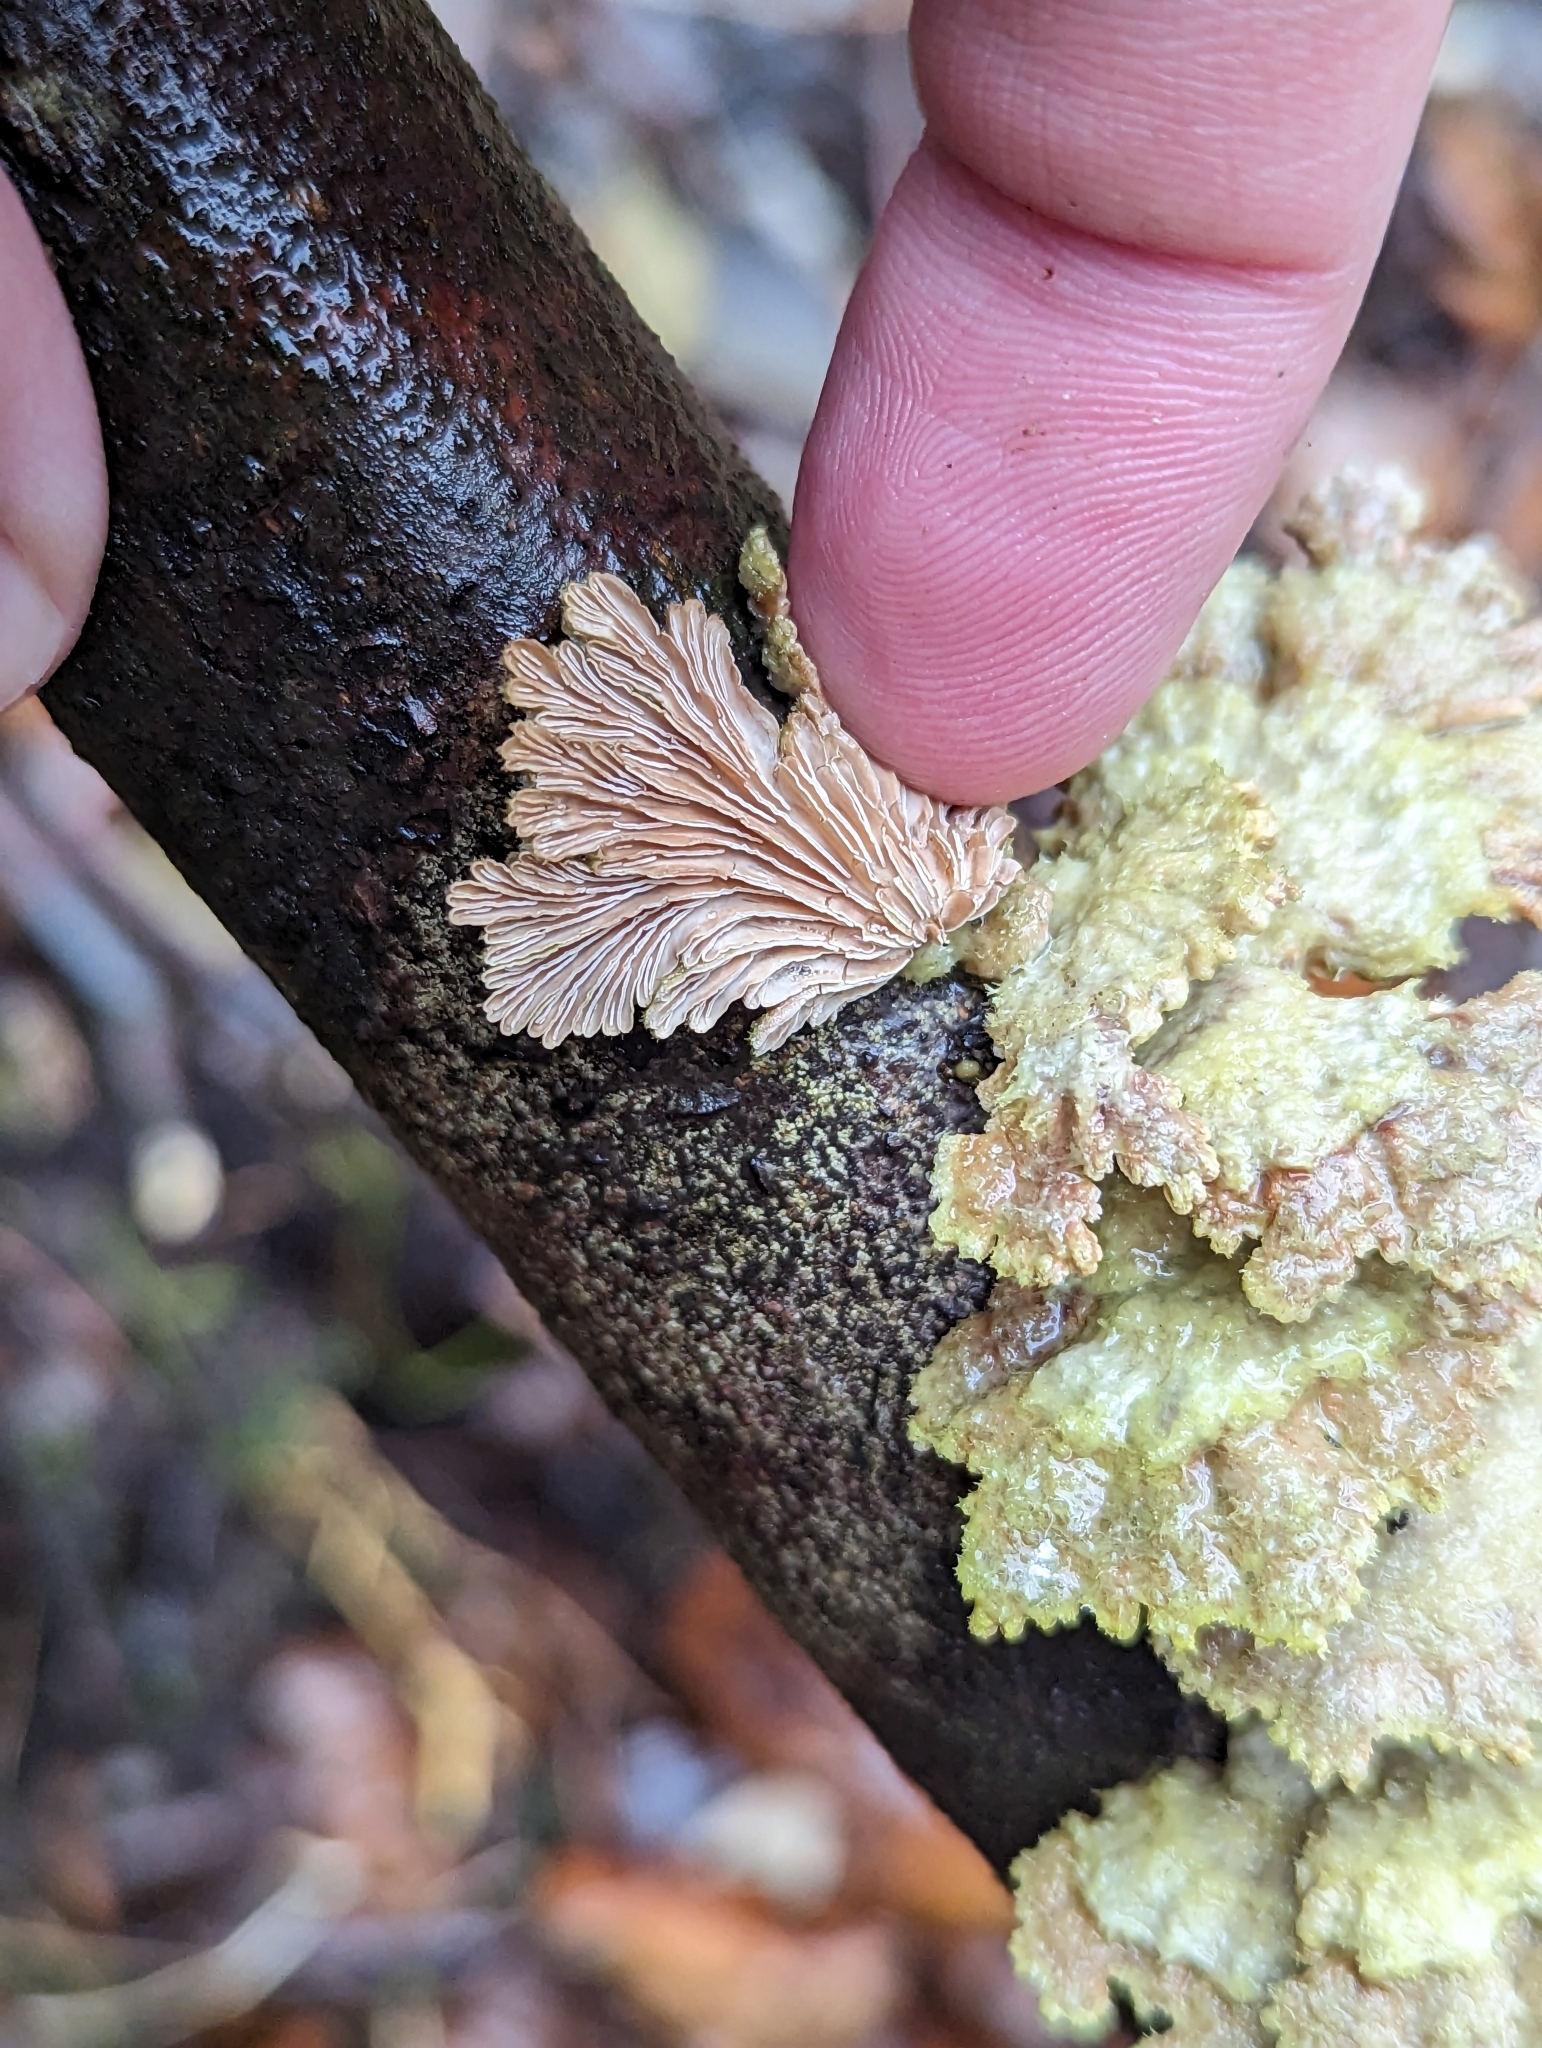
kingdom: Fungi
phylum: Basidiomycota
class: Agaricomycetes
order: Agaricales
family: Schizophyllaceae
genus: Schizophyllum
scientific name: Schizophyllum commune
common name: Common porecrust
